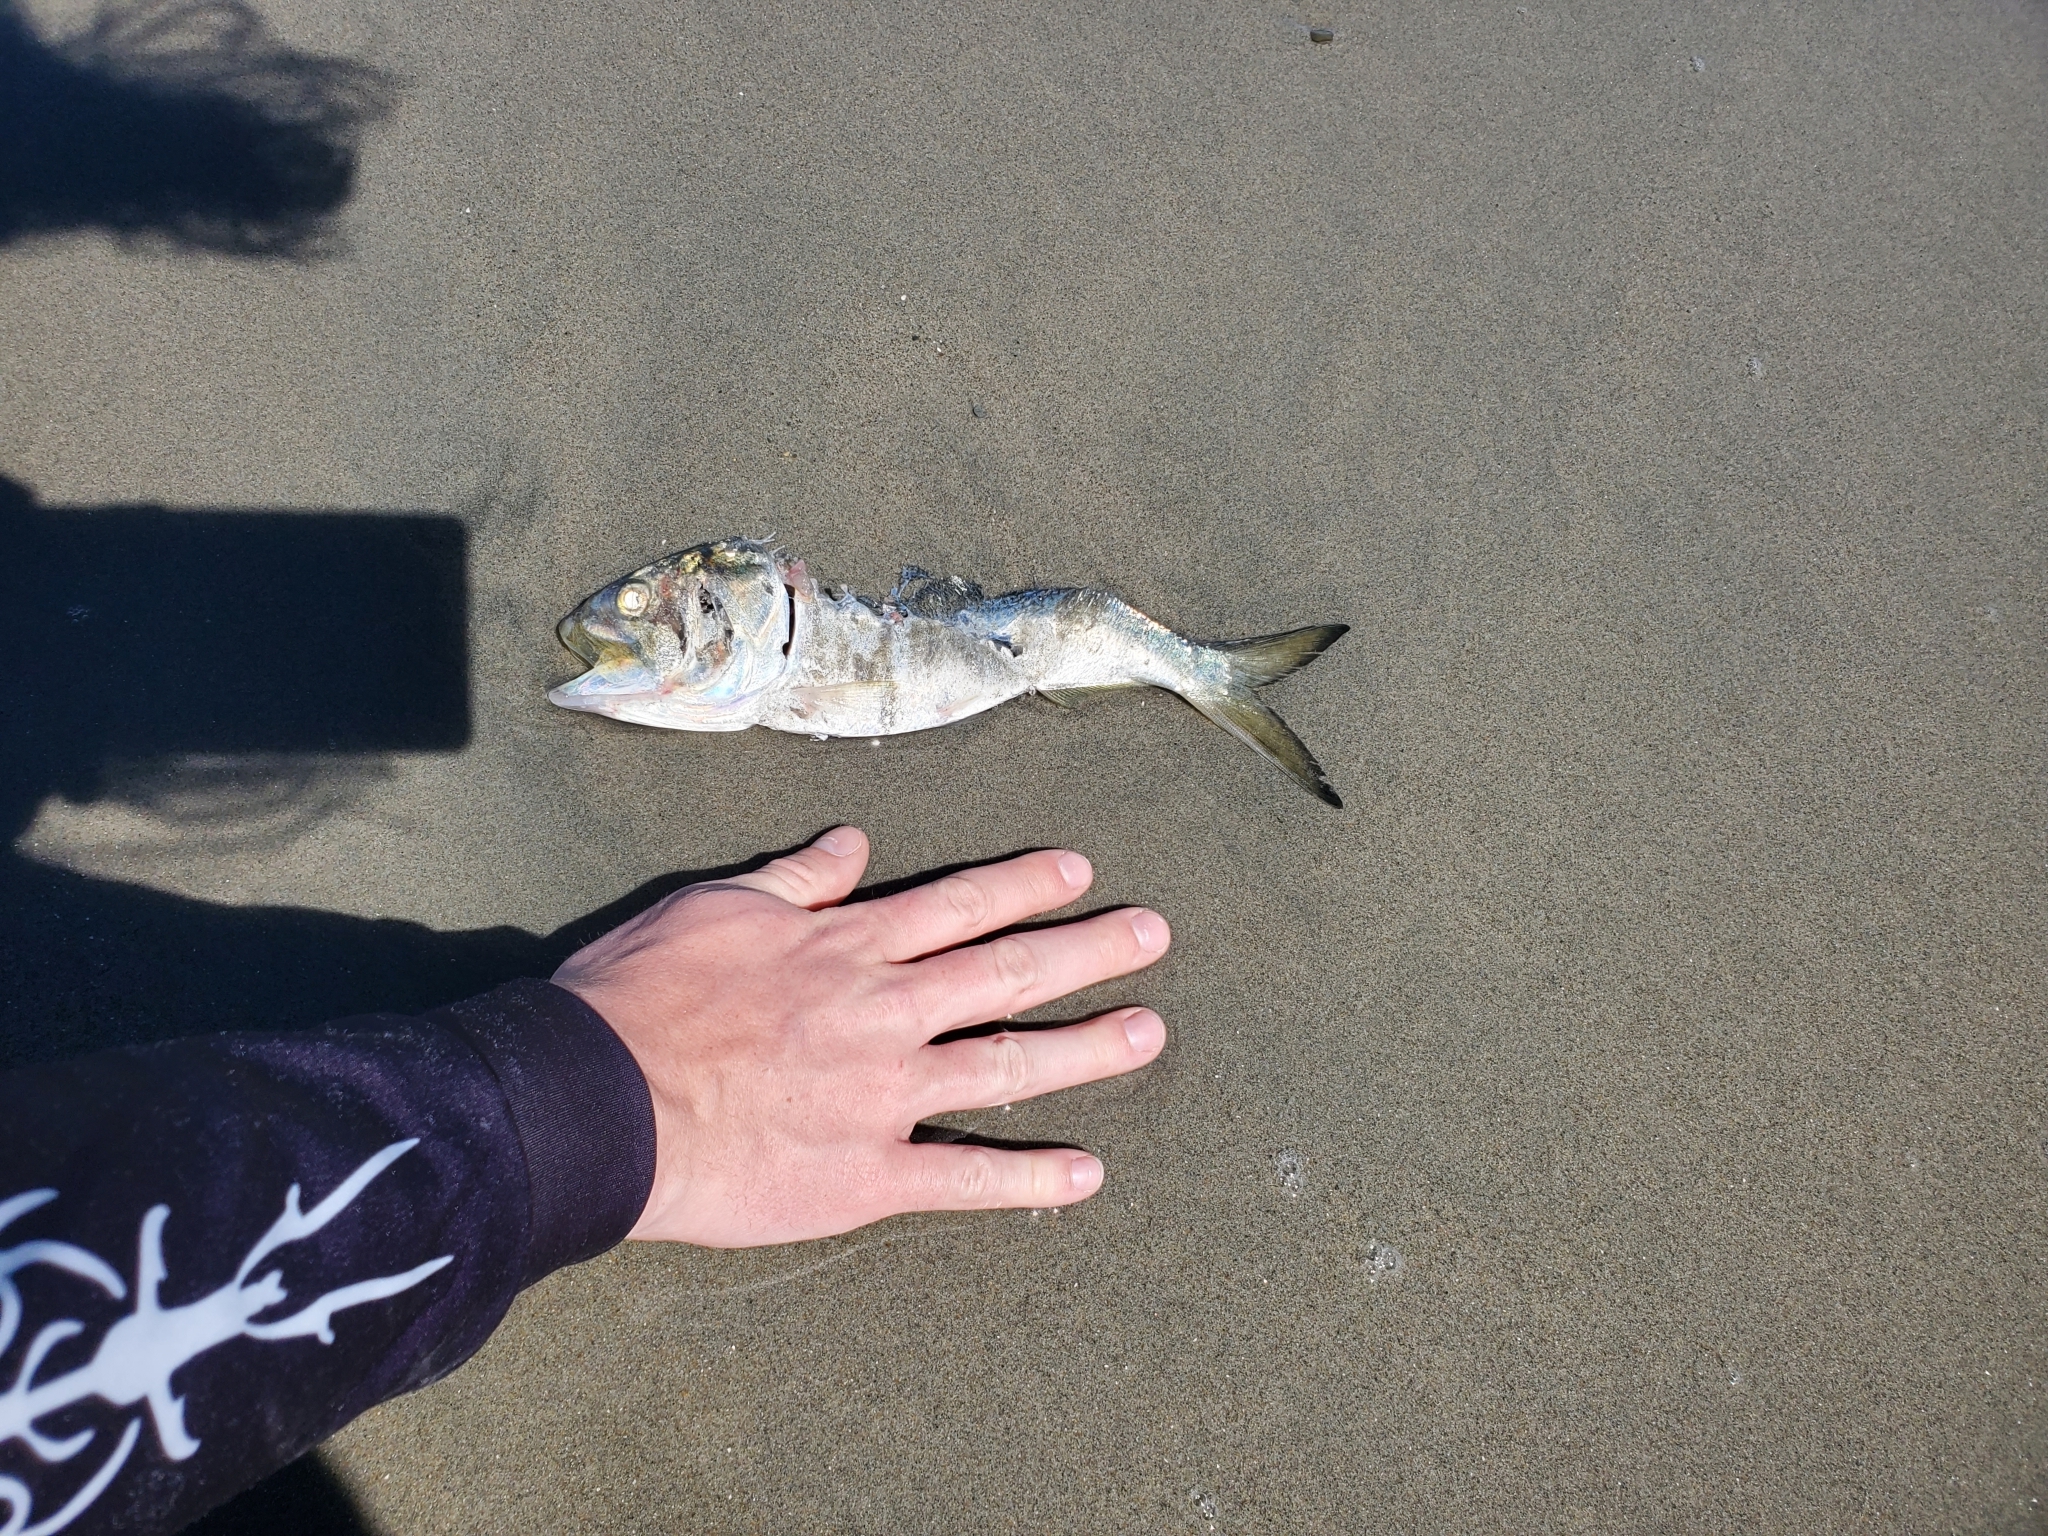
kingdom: Animalia
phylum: Chordata
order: Clupeiformes
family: Clupeidae
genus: Brevoortia
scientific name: Brevoortia tyrannus
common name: Atlantic menhaden
